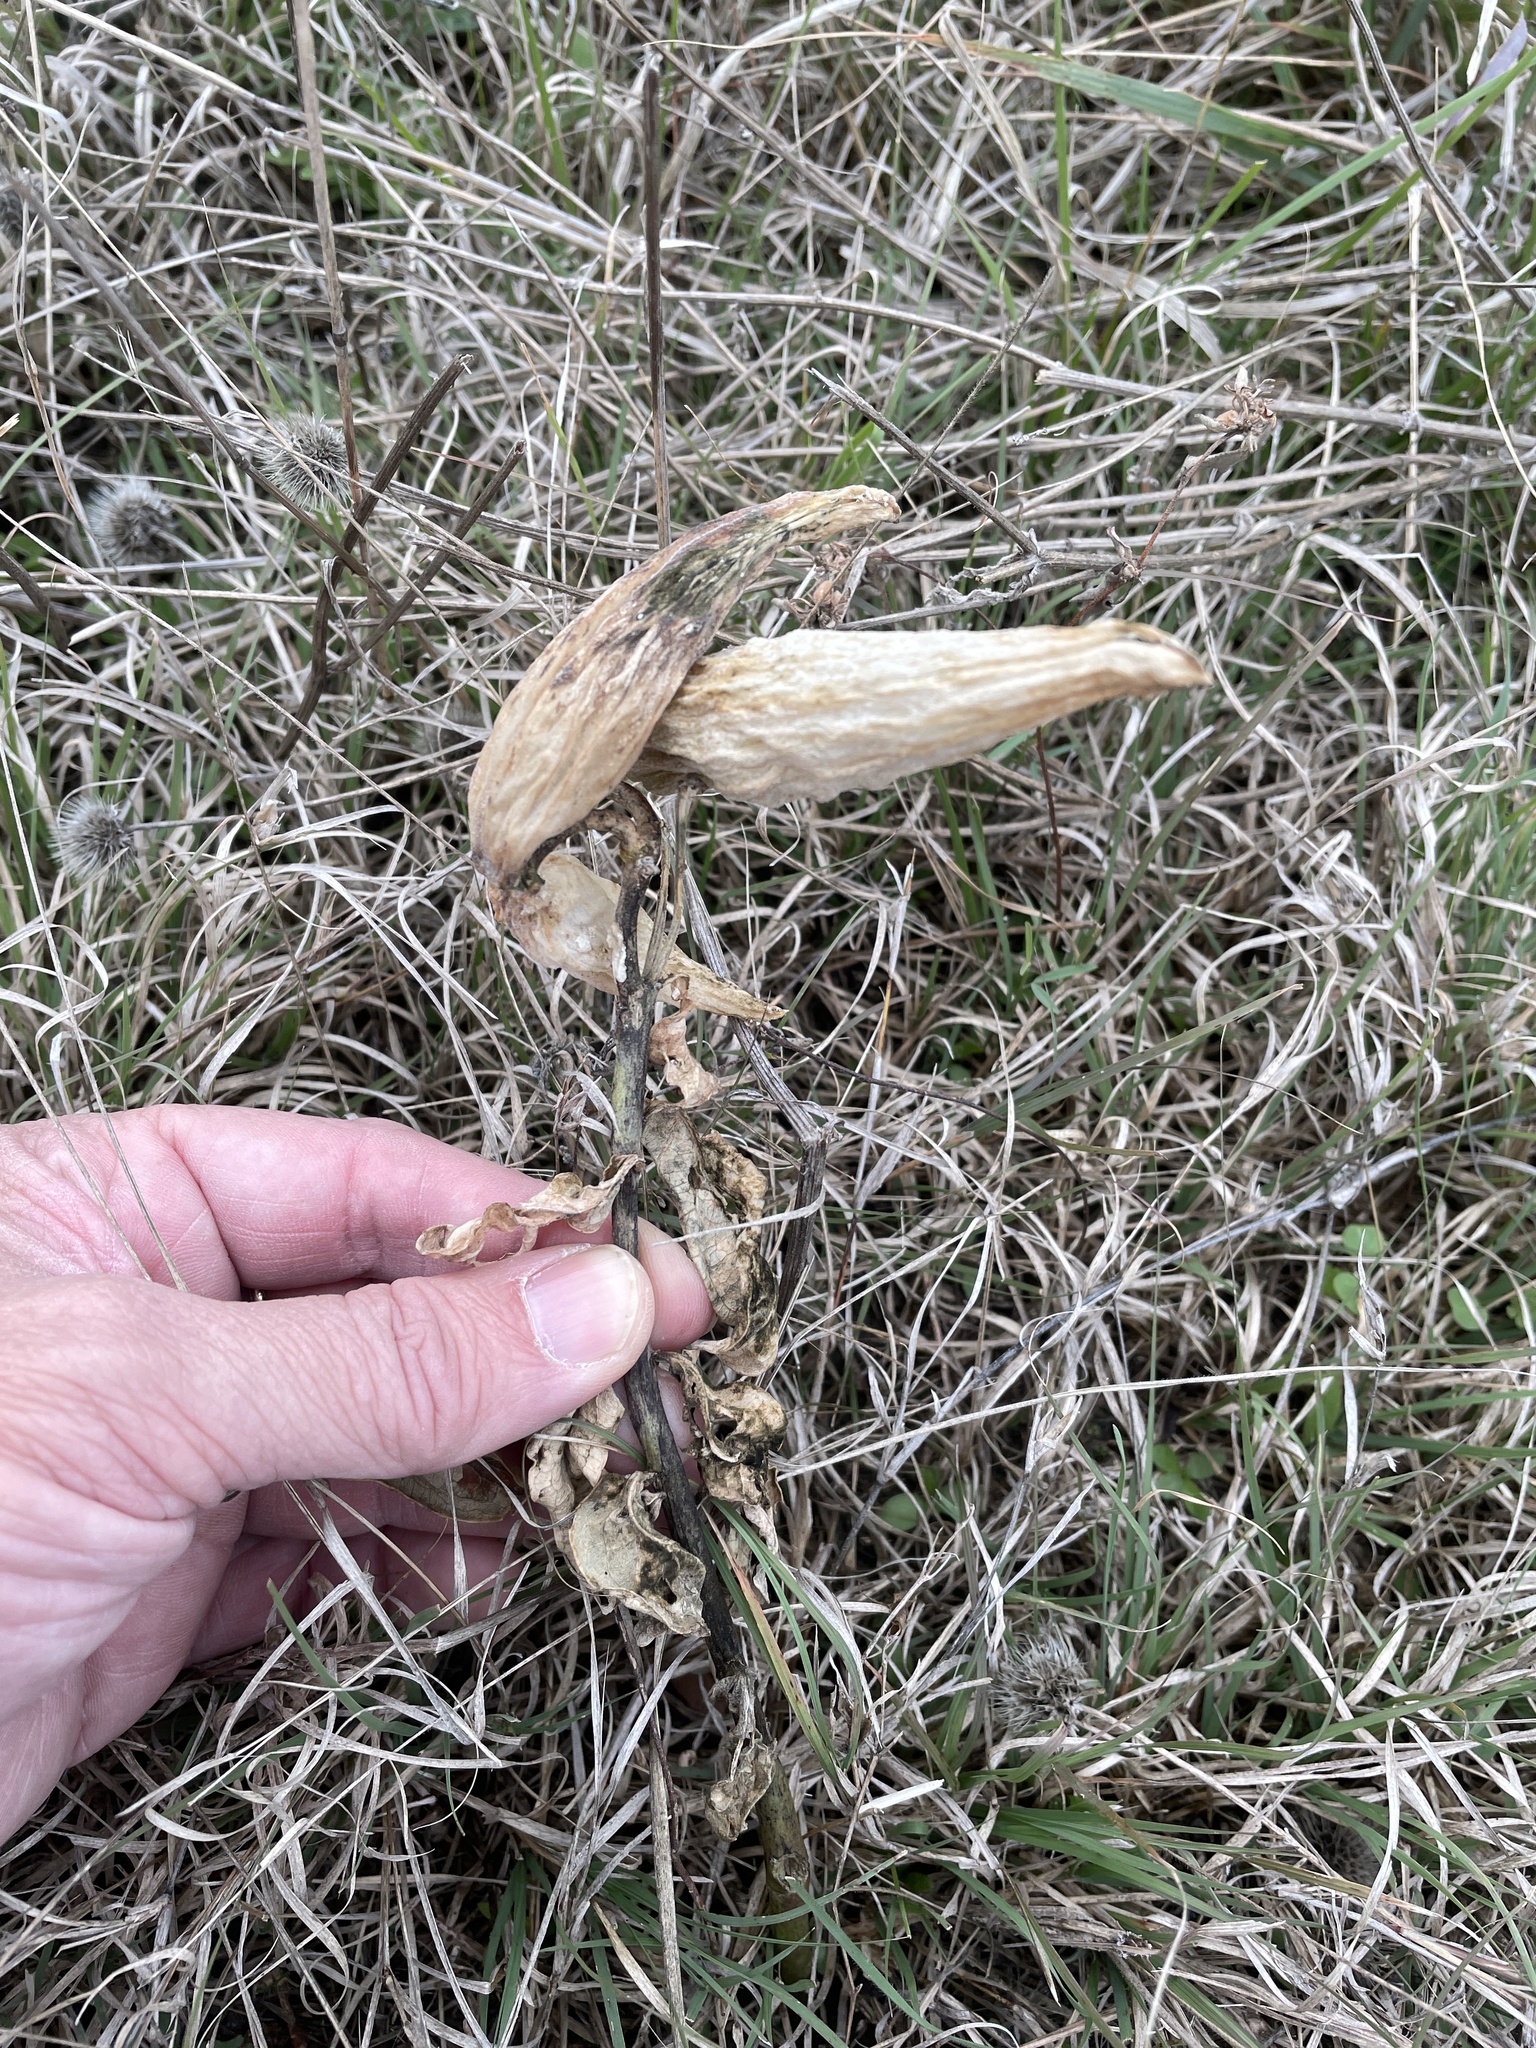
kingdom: Plantae
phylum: Tracheophyta
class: Magnoliopsida
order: Gentianales
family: Apocynaceae
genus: Asclepias
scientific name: Asclepias viridis
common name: Antelope-horns
